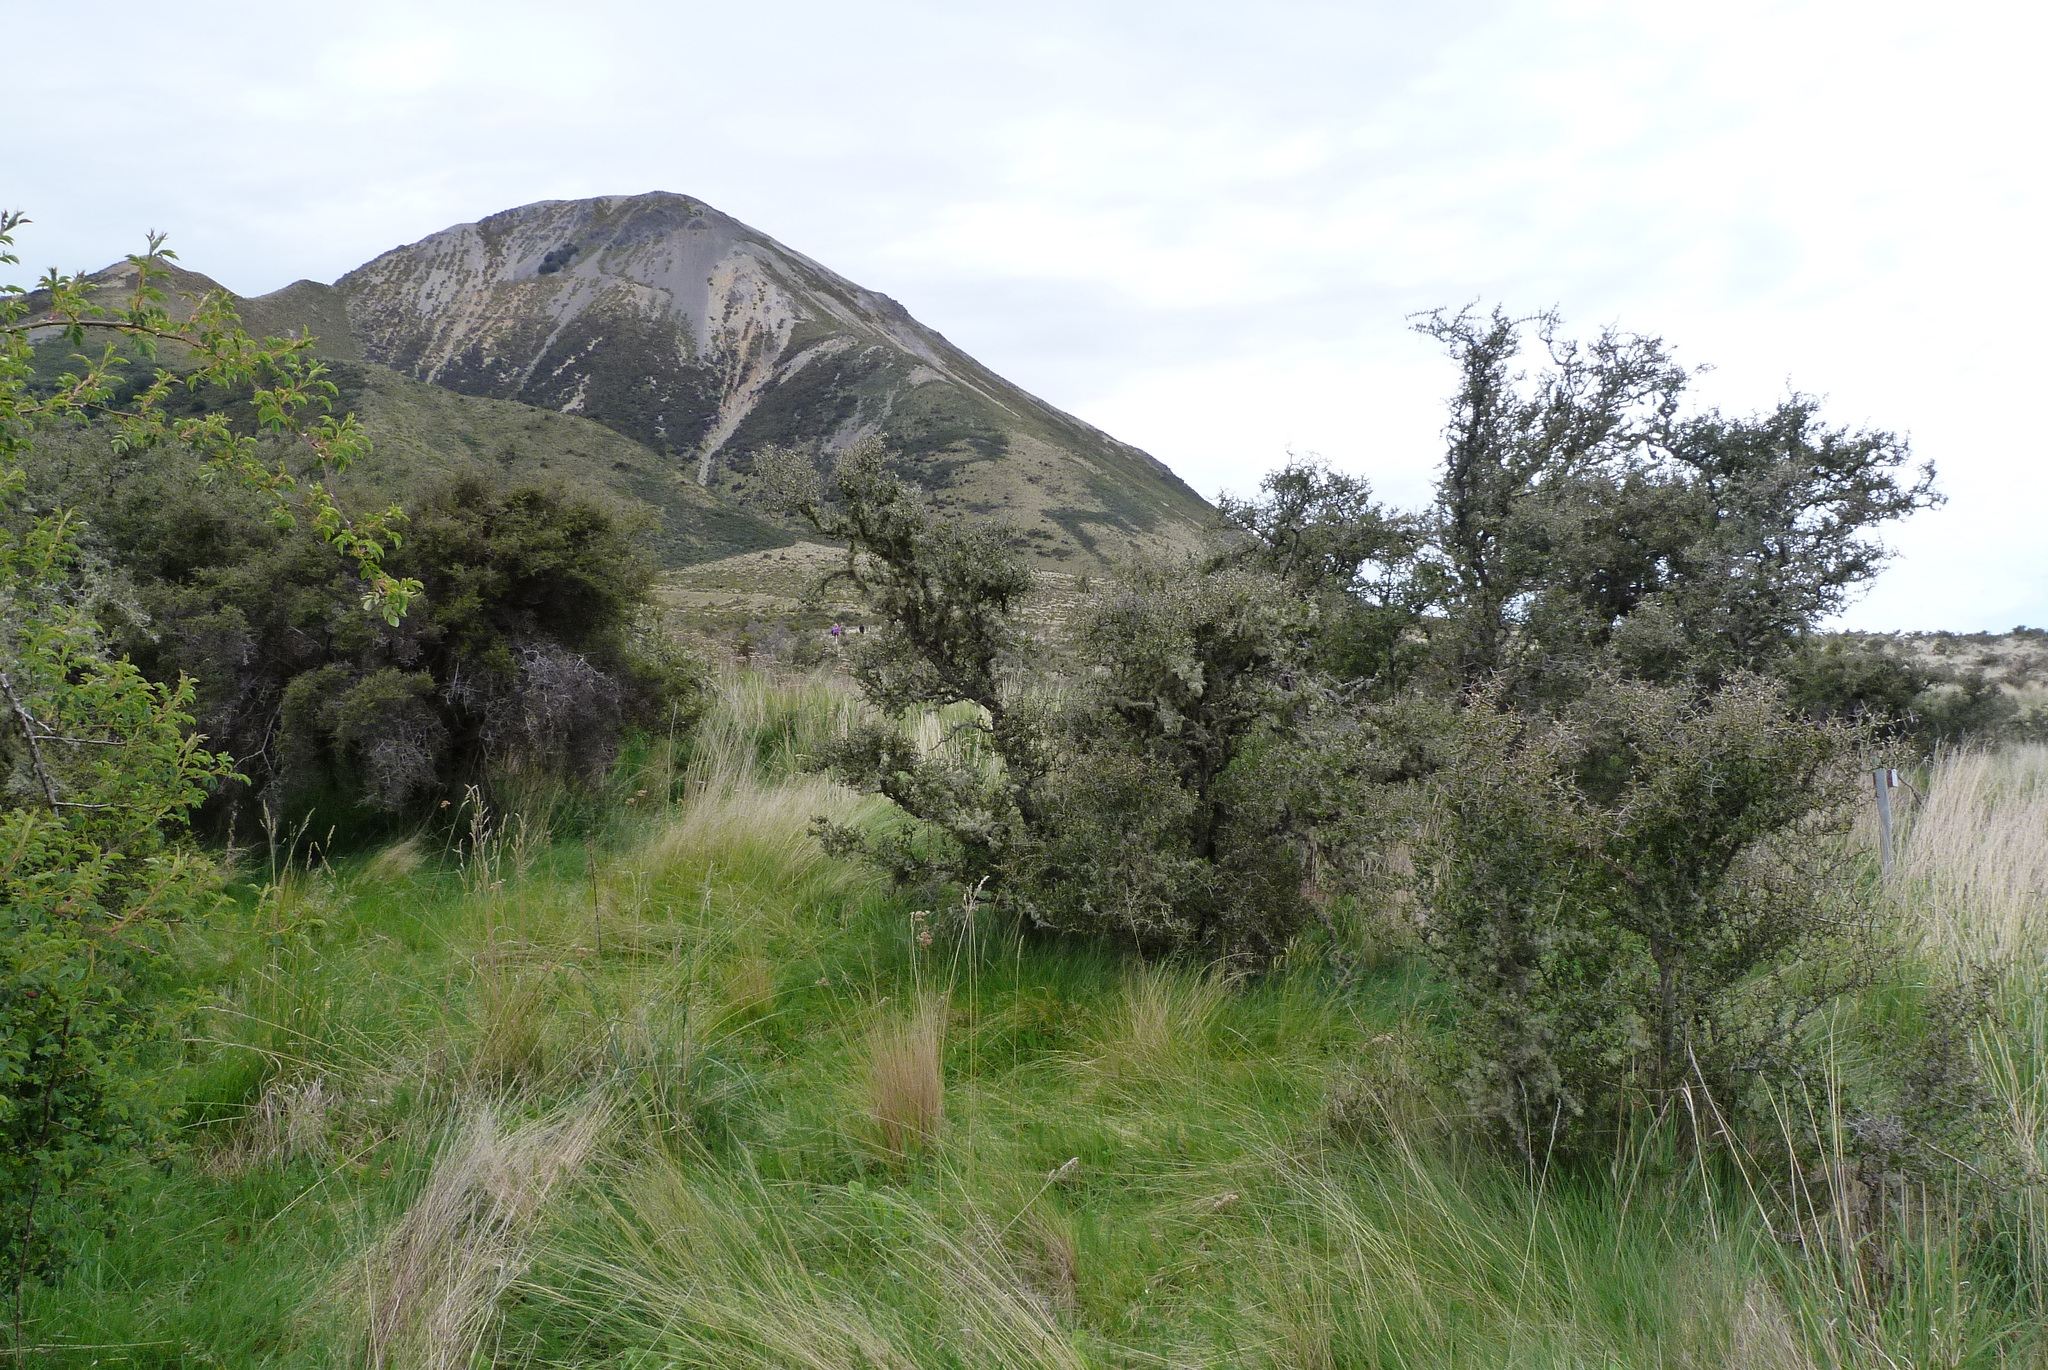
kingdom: Plantae
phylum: Tracheophyta
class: Magnoliopsida
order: Rosales
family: Rhamnaceae
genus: Discaria
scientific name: Discaria toumatou
